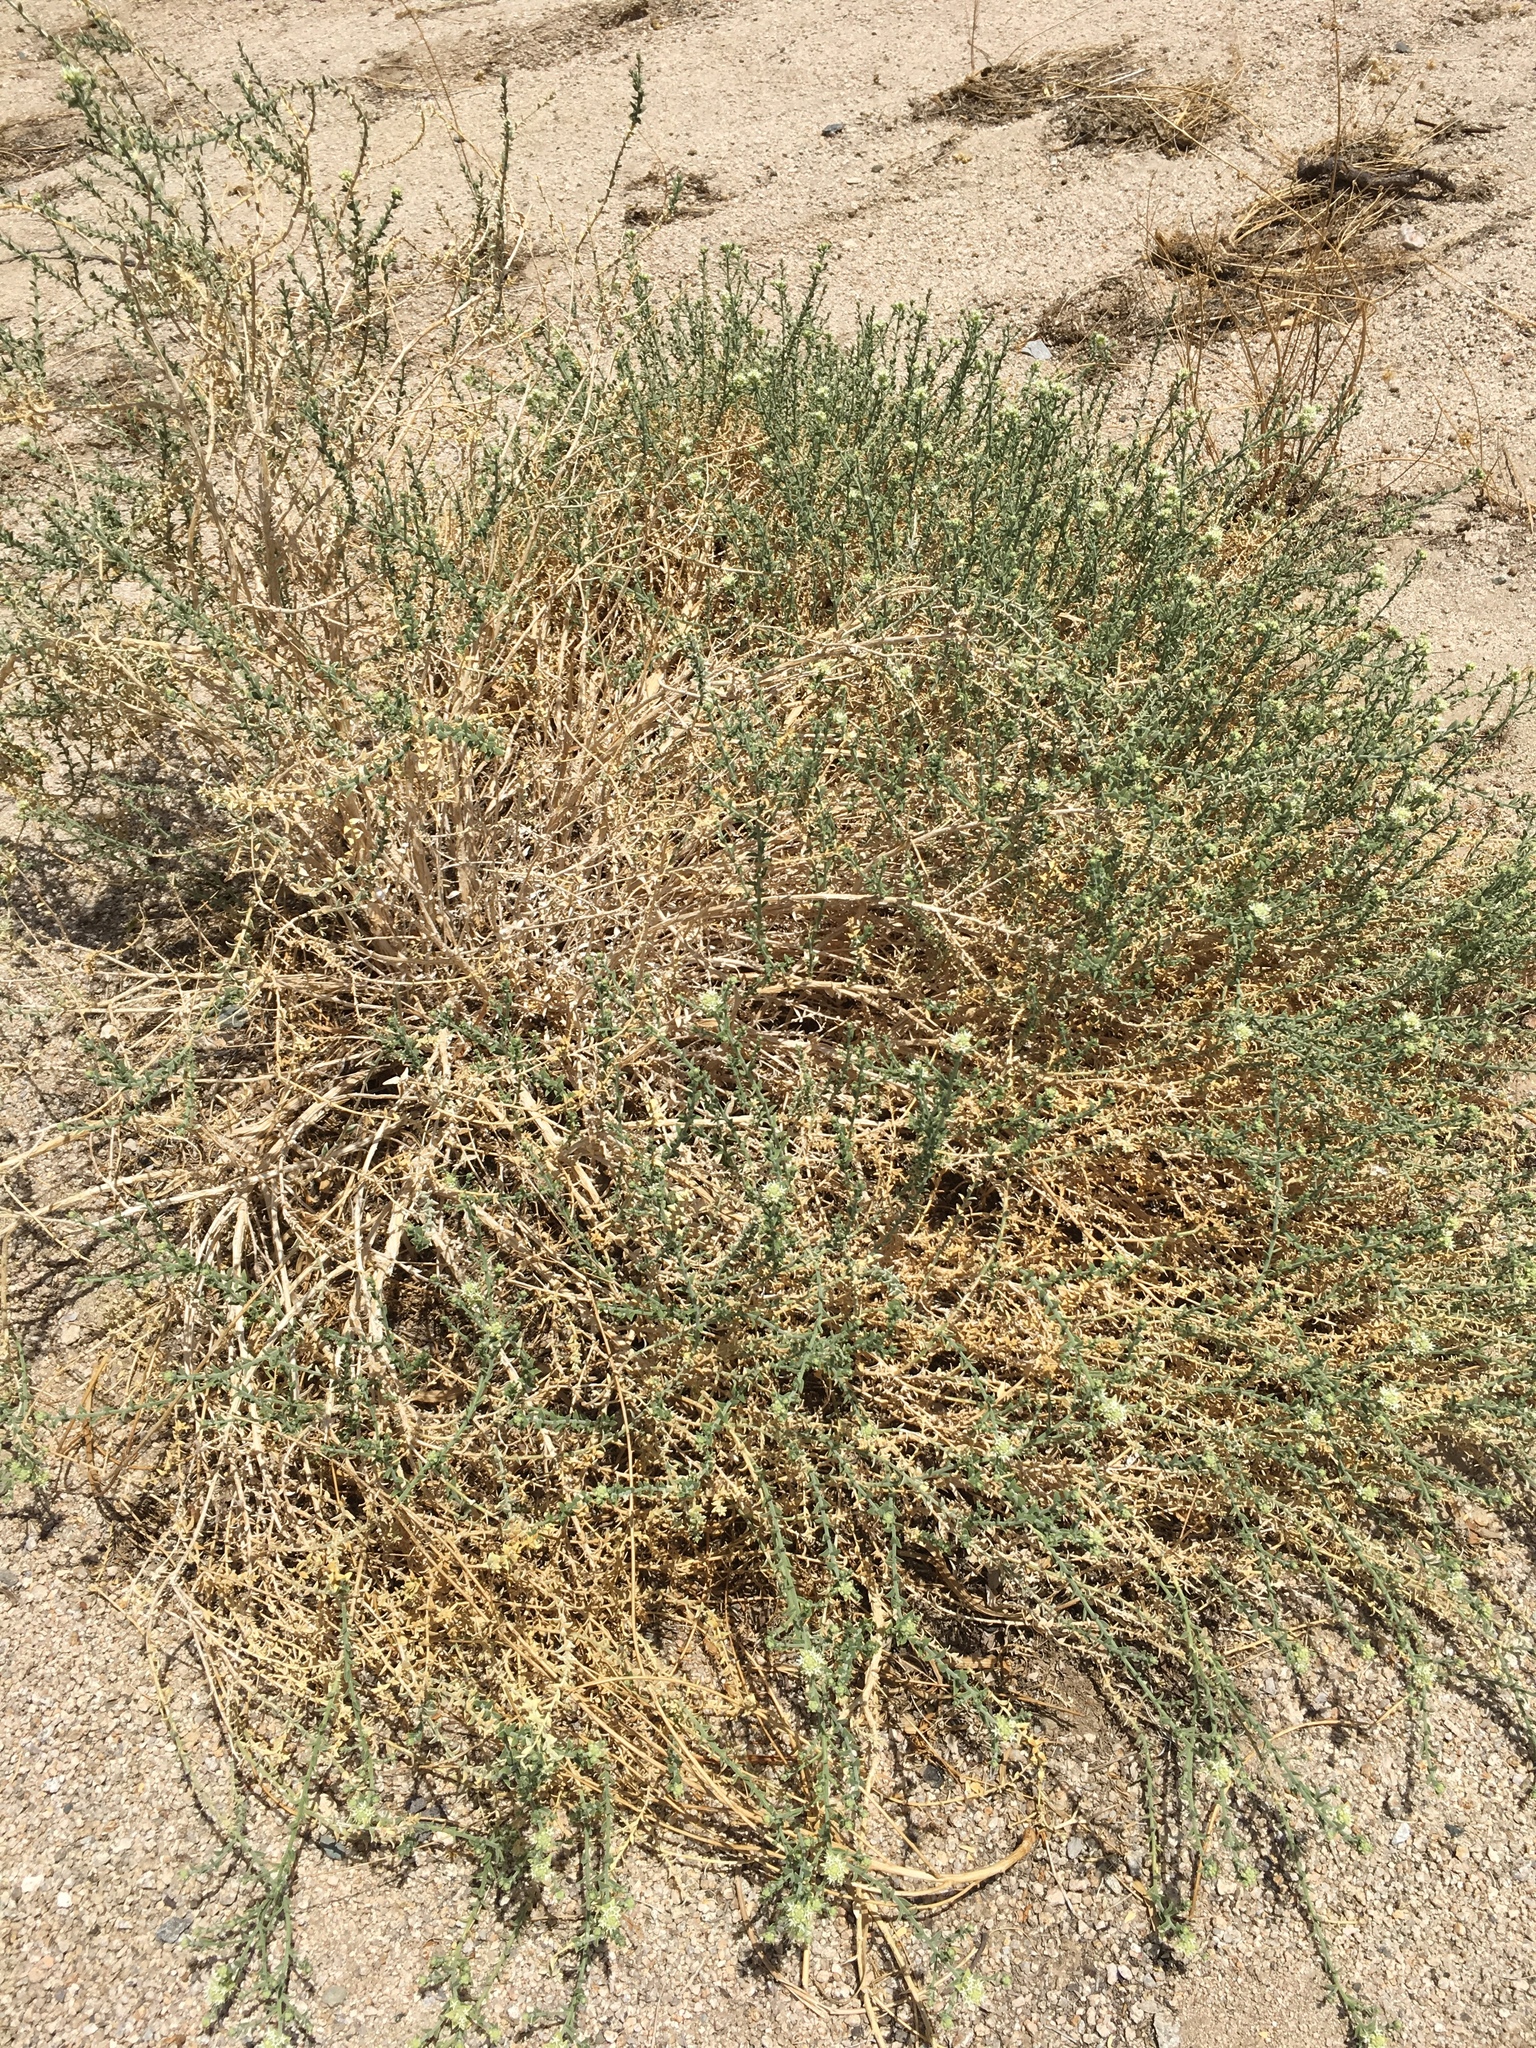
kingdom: Plantae
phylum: Tracheophyta
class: Magnoliopsida
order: Cornales
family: Loasaceae
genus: Petalonyx
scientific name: Petalonyx thurberi
